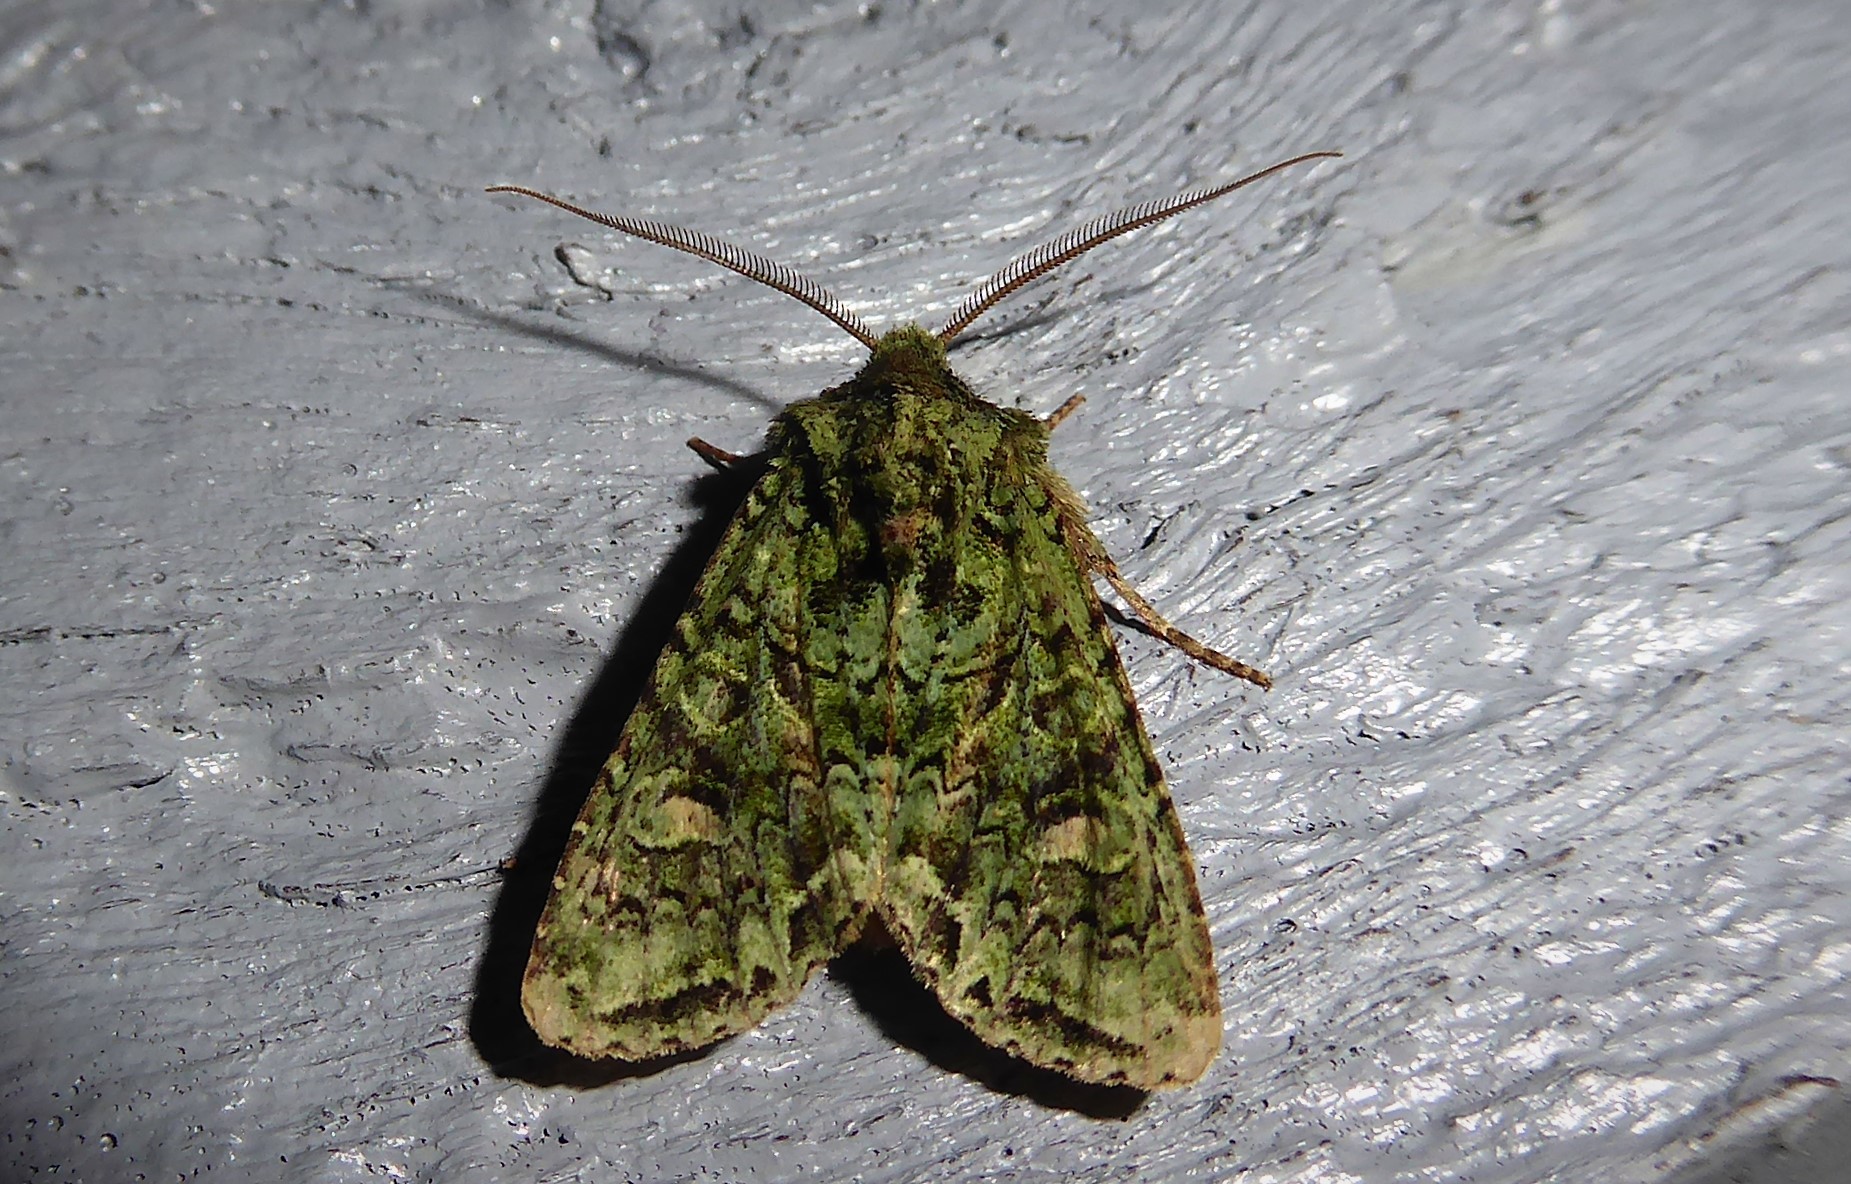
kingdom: Animalia
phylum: Arthropoda
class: Insecta
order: Lepidoptera
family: Noctuidae
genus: Ichneutica
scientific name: Ichneutica
